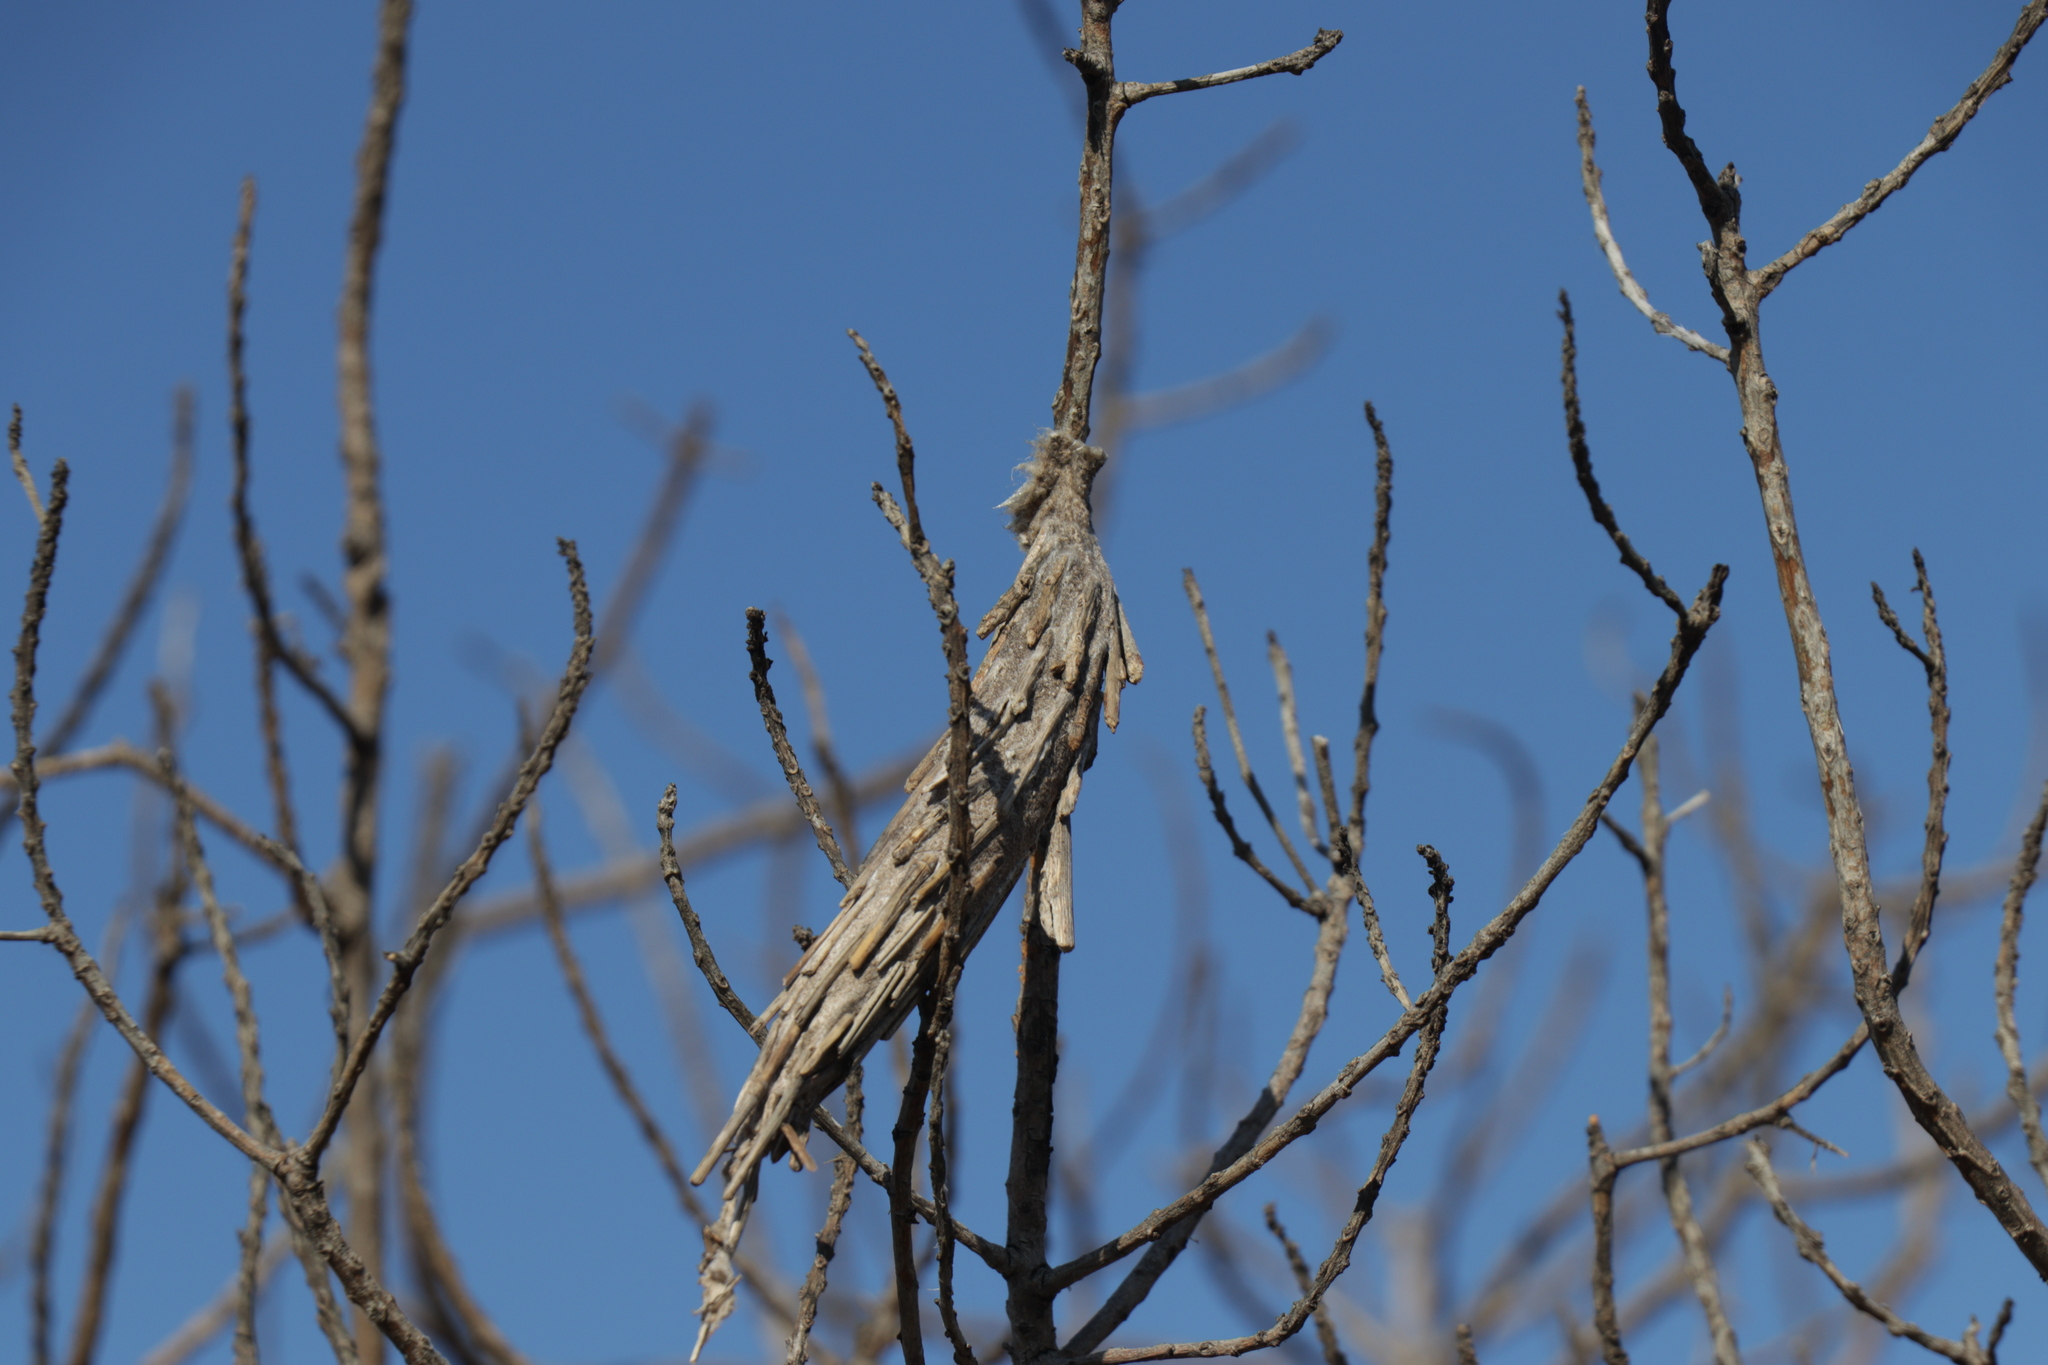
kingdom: Animalia
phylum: Arthropoda
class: Insecta
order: Lepidoptera
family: Psychidae
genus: Metura
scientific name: Metura elongatus
